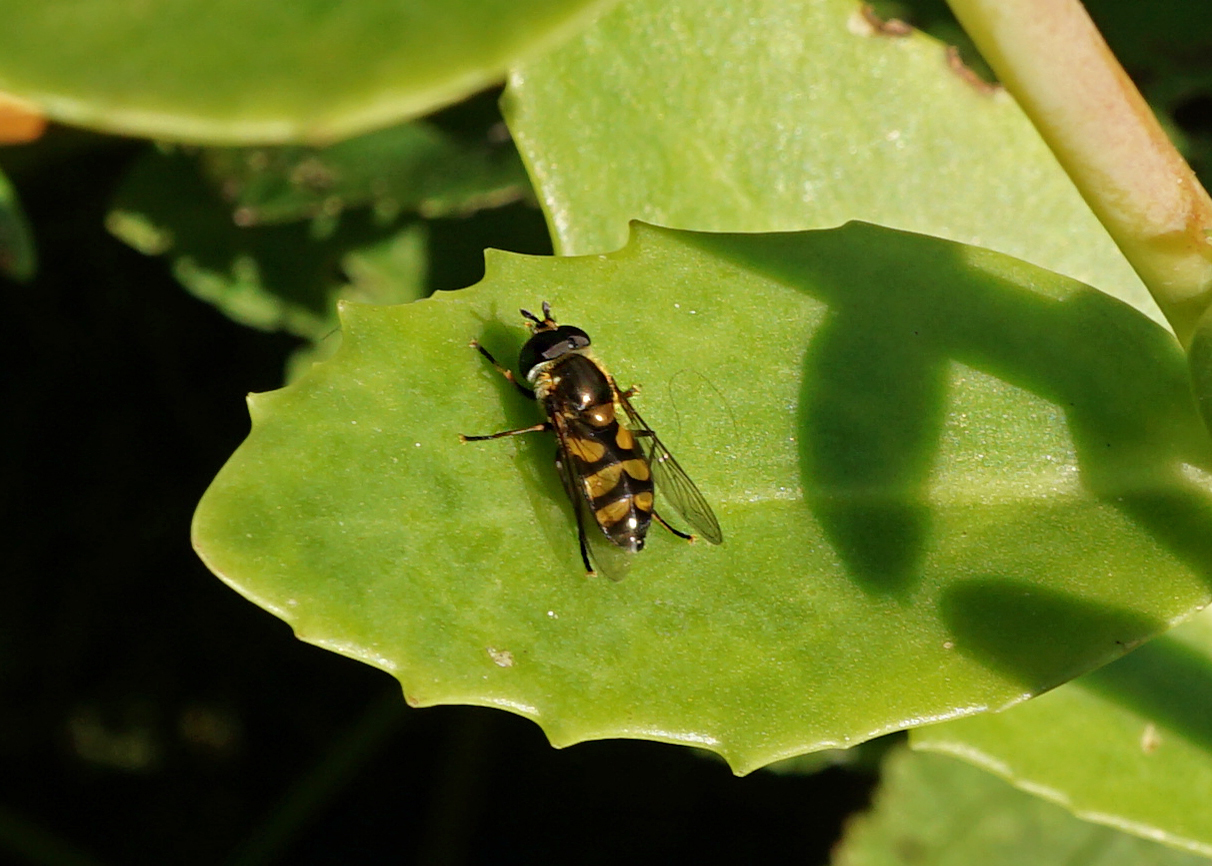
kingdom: Animalia
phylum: Arthropoda
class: Insecta
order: Diptera
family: Syrphidae
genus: Didea
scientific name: Didea fasciata
